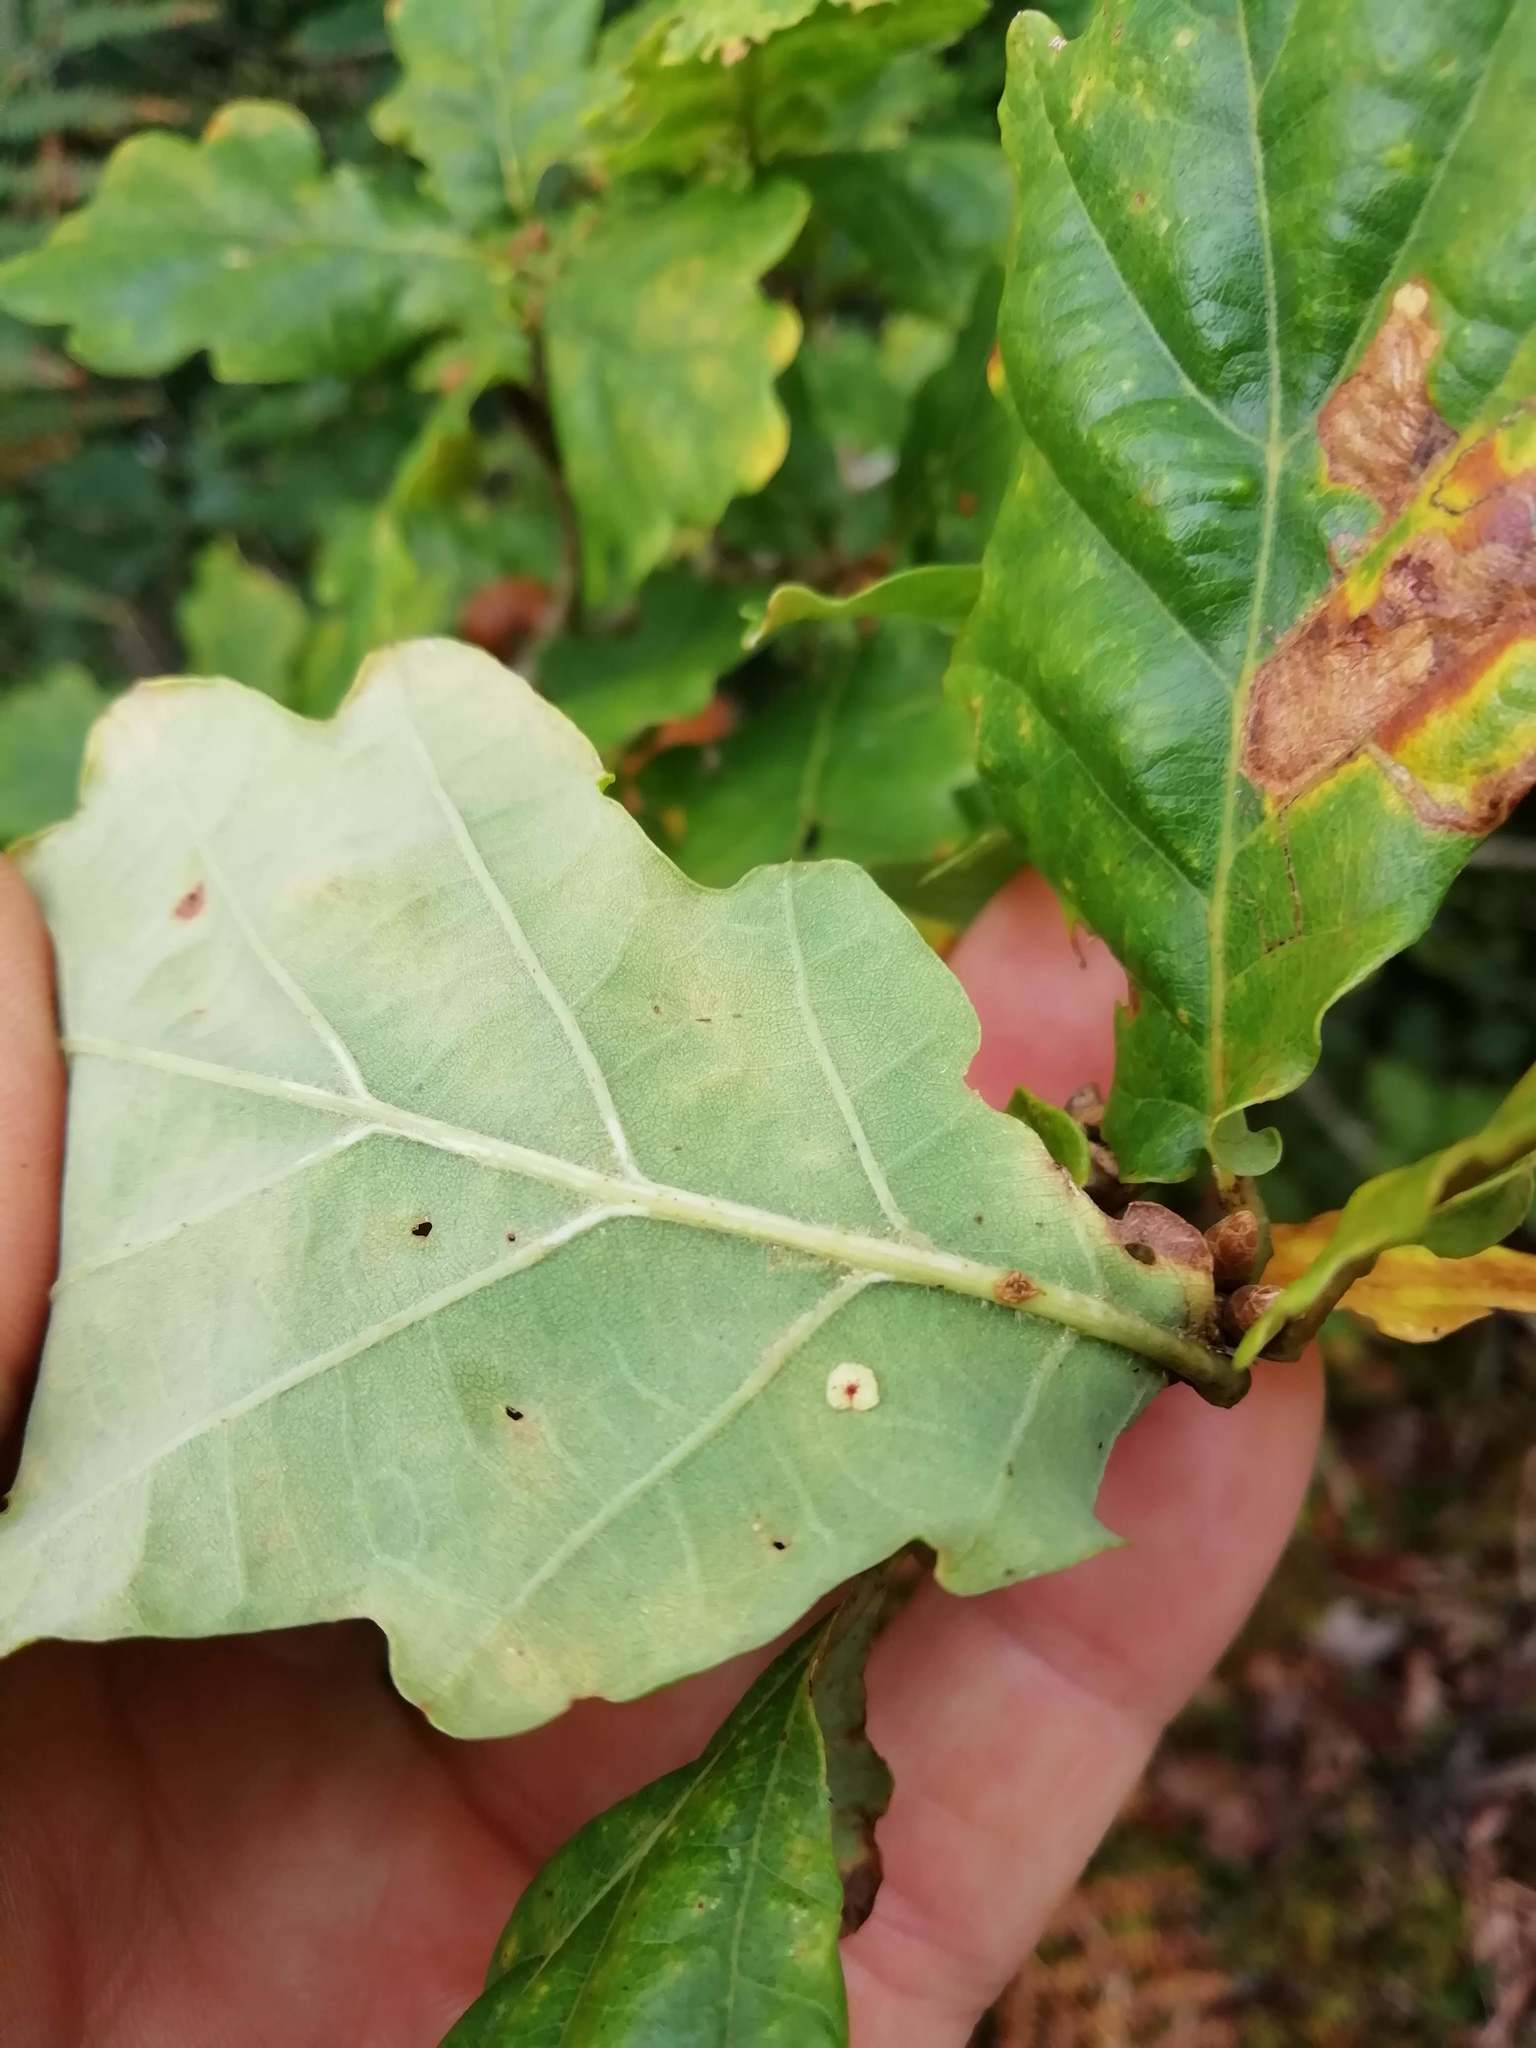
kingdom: Animalia
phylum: Arthropoda
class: Insecta
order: Hymenoptera
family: Cynipidae
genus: Neuroterus
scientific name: Neuroterus quercusbaccarum
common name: Common spangle gall
